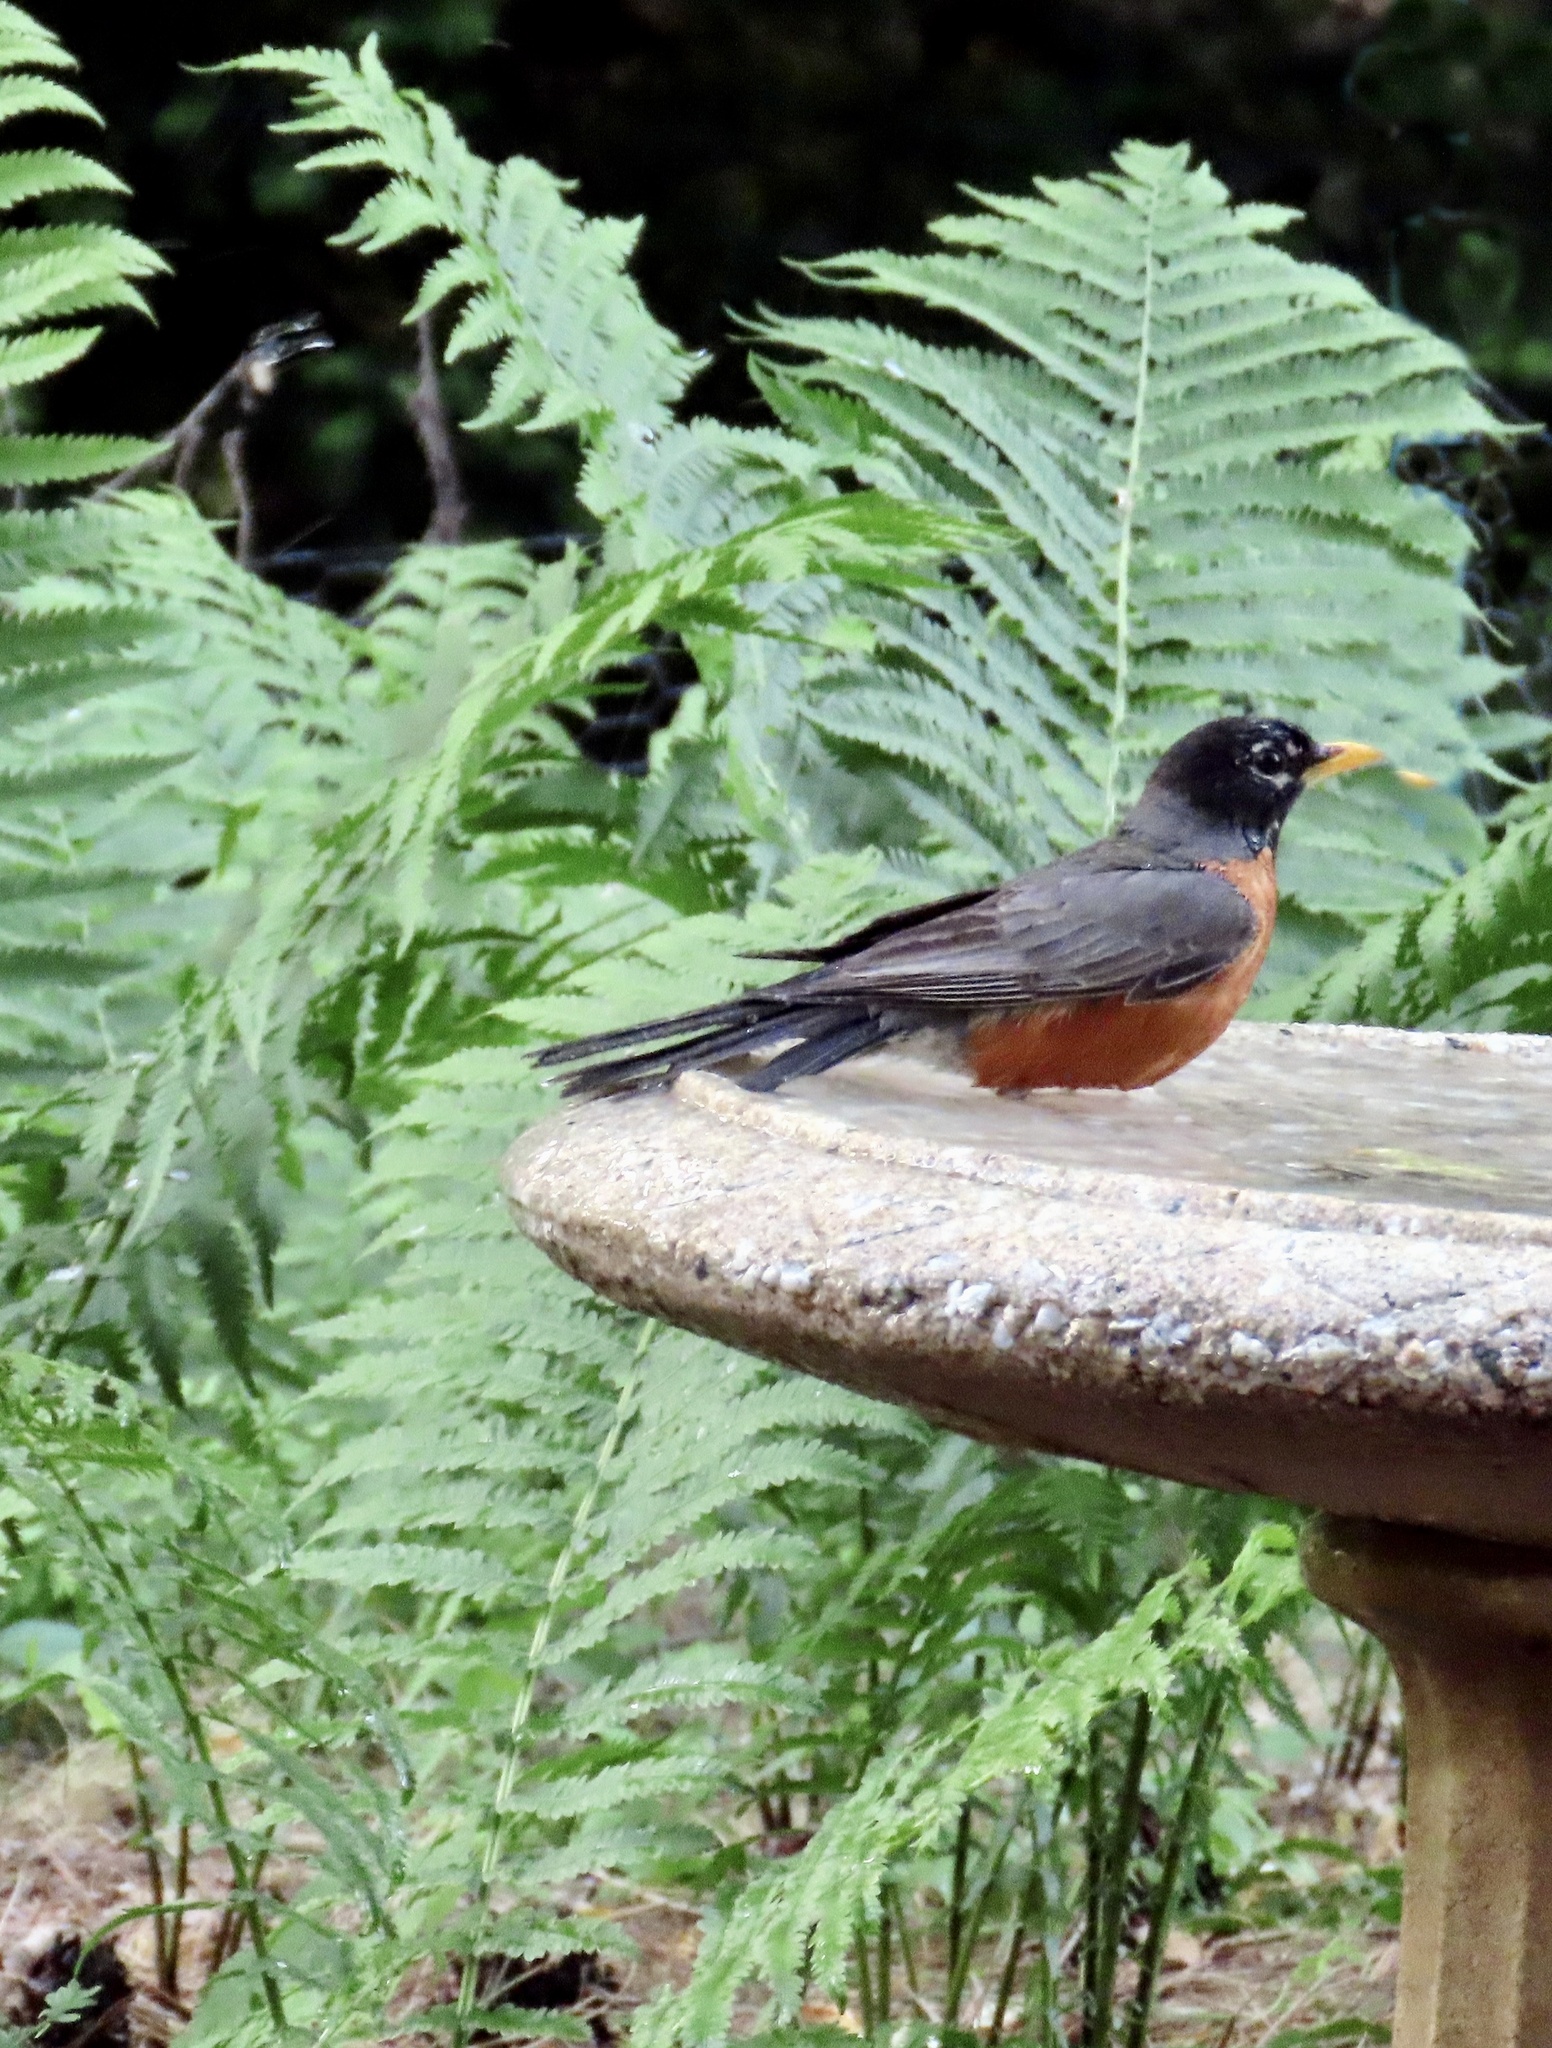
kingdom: Animalia
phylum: Chordata
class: Aves
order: Passeriformes
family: Turdidae
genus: Turdus
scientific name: Turdus migratorius
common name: American robin
